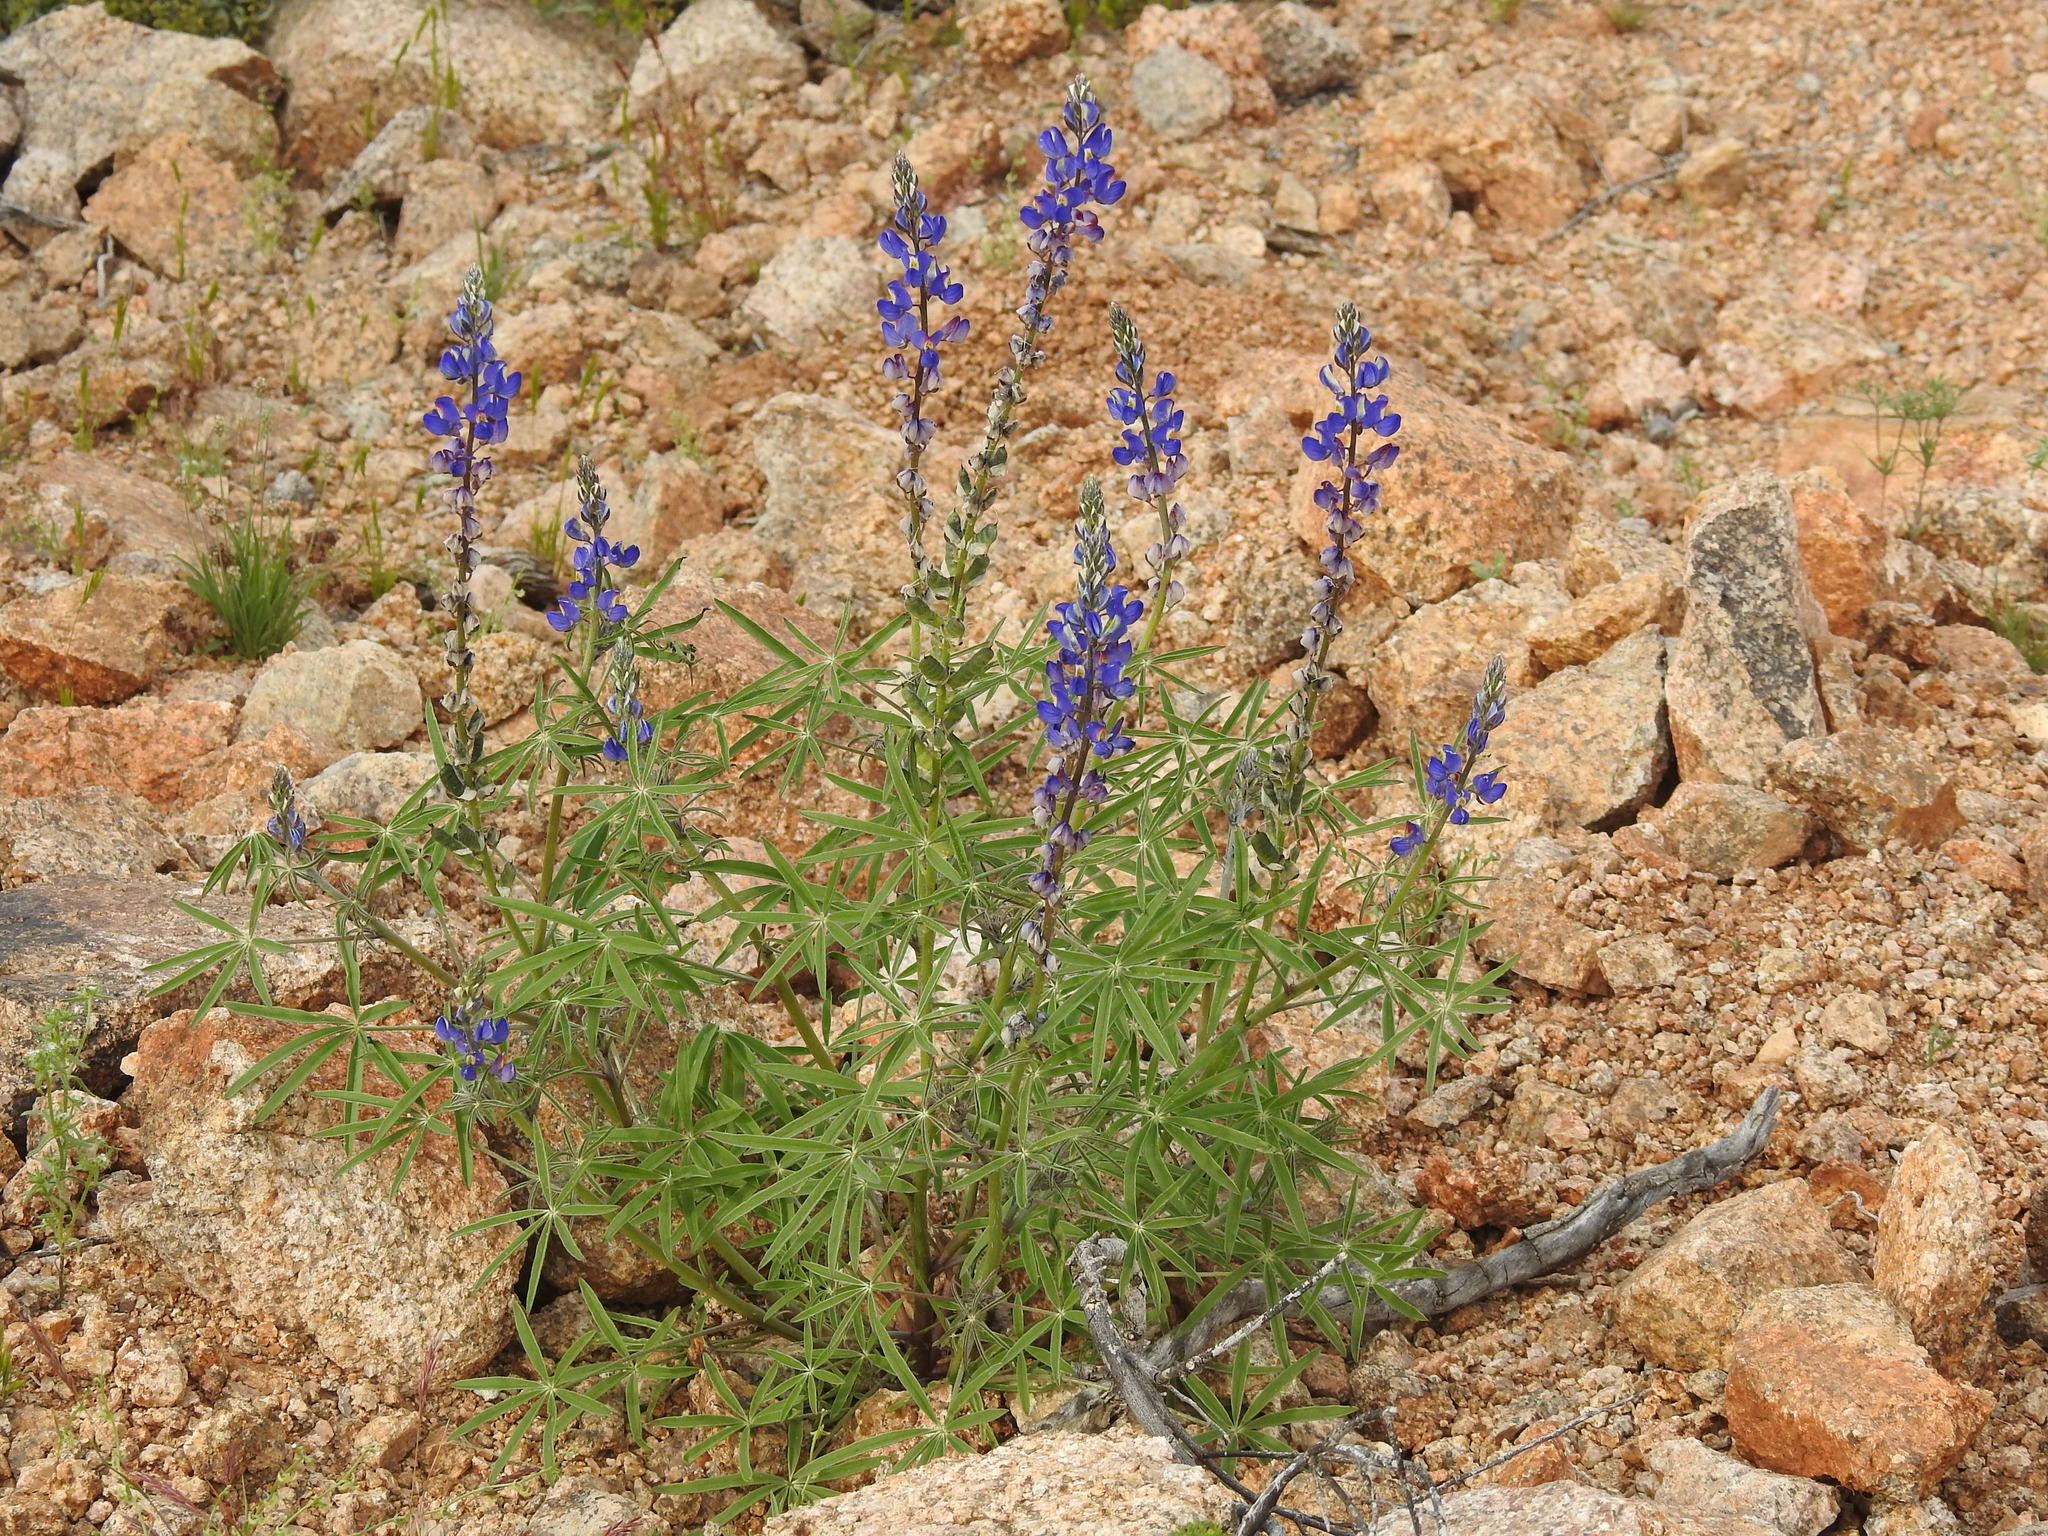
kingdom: Plantae
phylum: Tracheophyta
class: Magnoliopsida
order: Fabales
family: Fabaceae
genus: Lupinus
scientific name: Lupinus sparsiflorus
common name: Coulter's lupine
